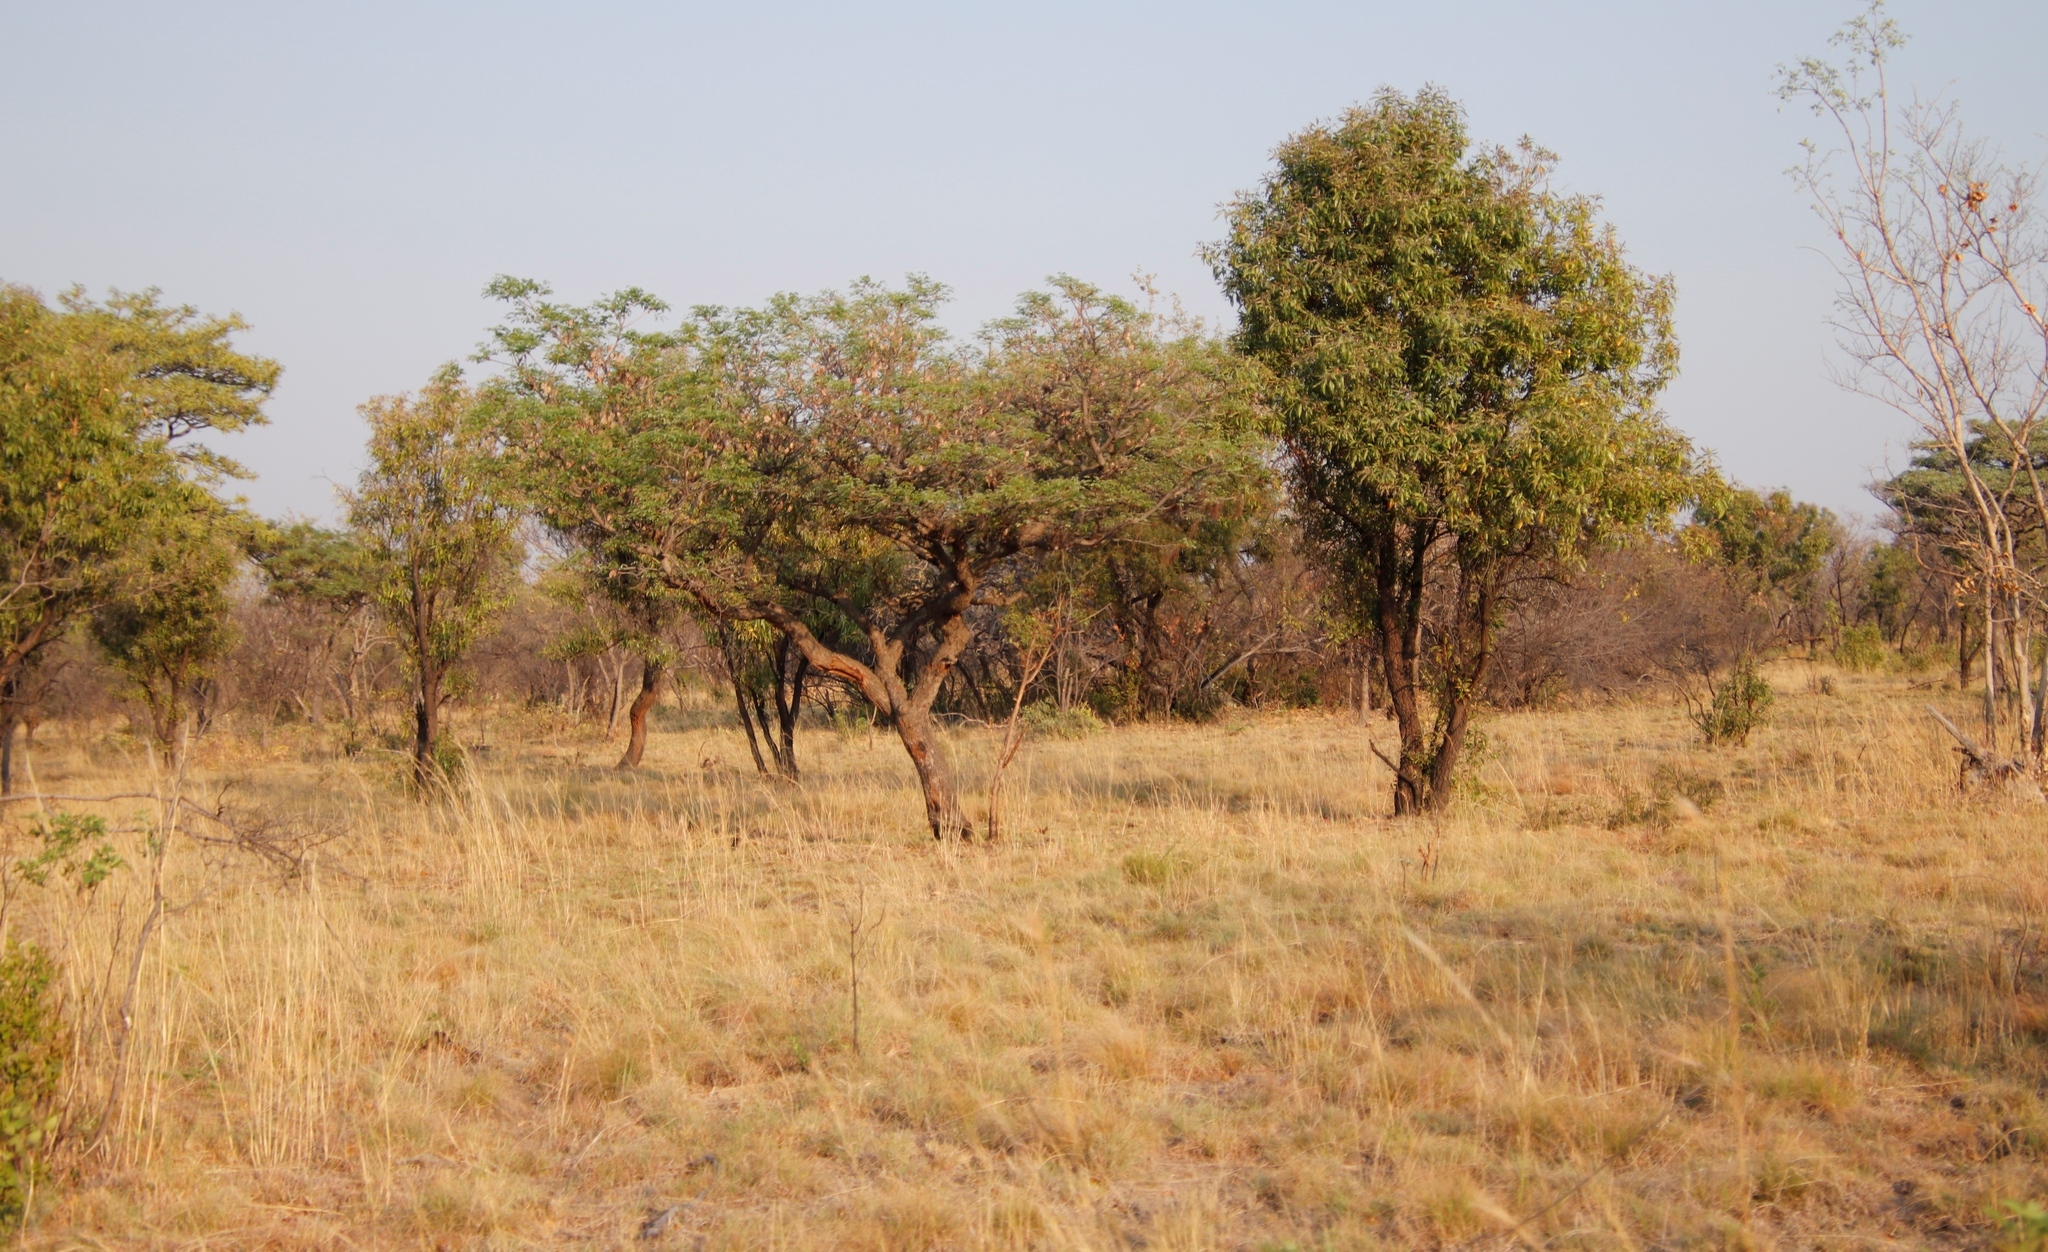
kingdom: Plantae
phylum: Tracheophyta
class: Magnoliopsida
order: Fabales
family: Fabaceae
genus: Burkea
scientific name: Burkea africana
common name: Mkalati tree
